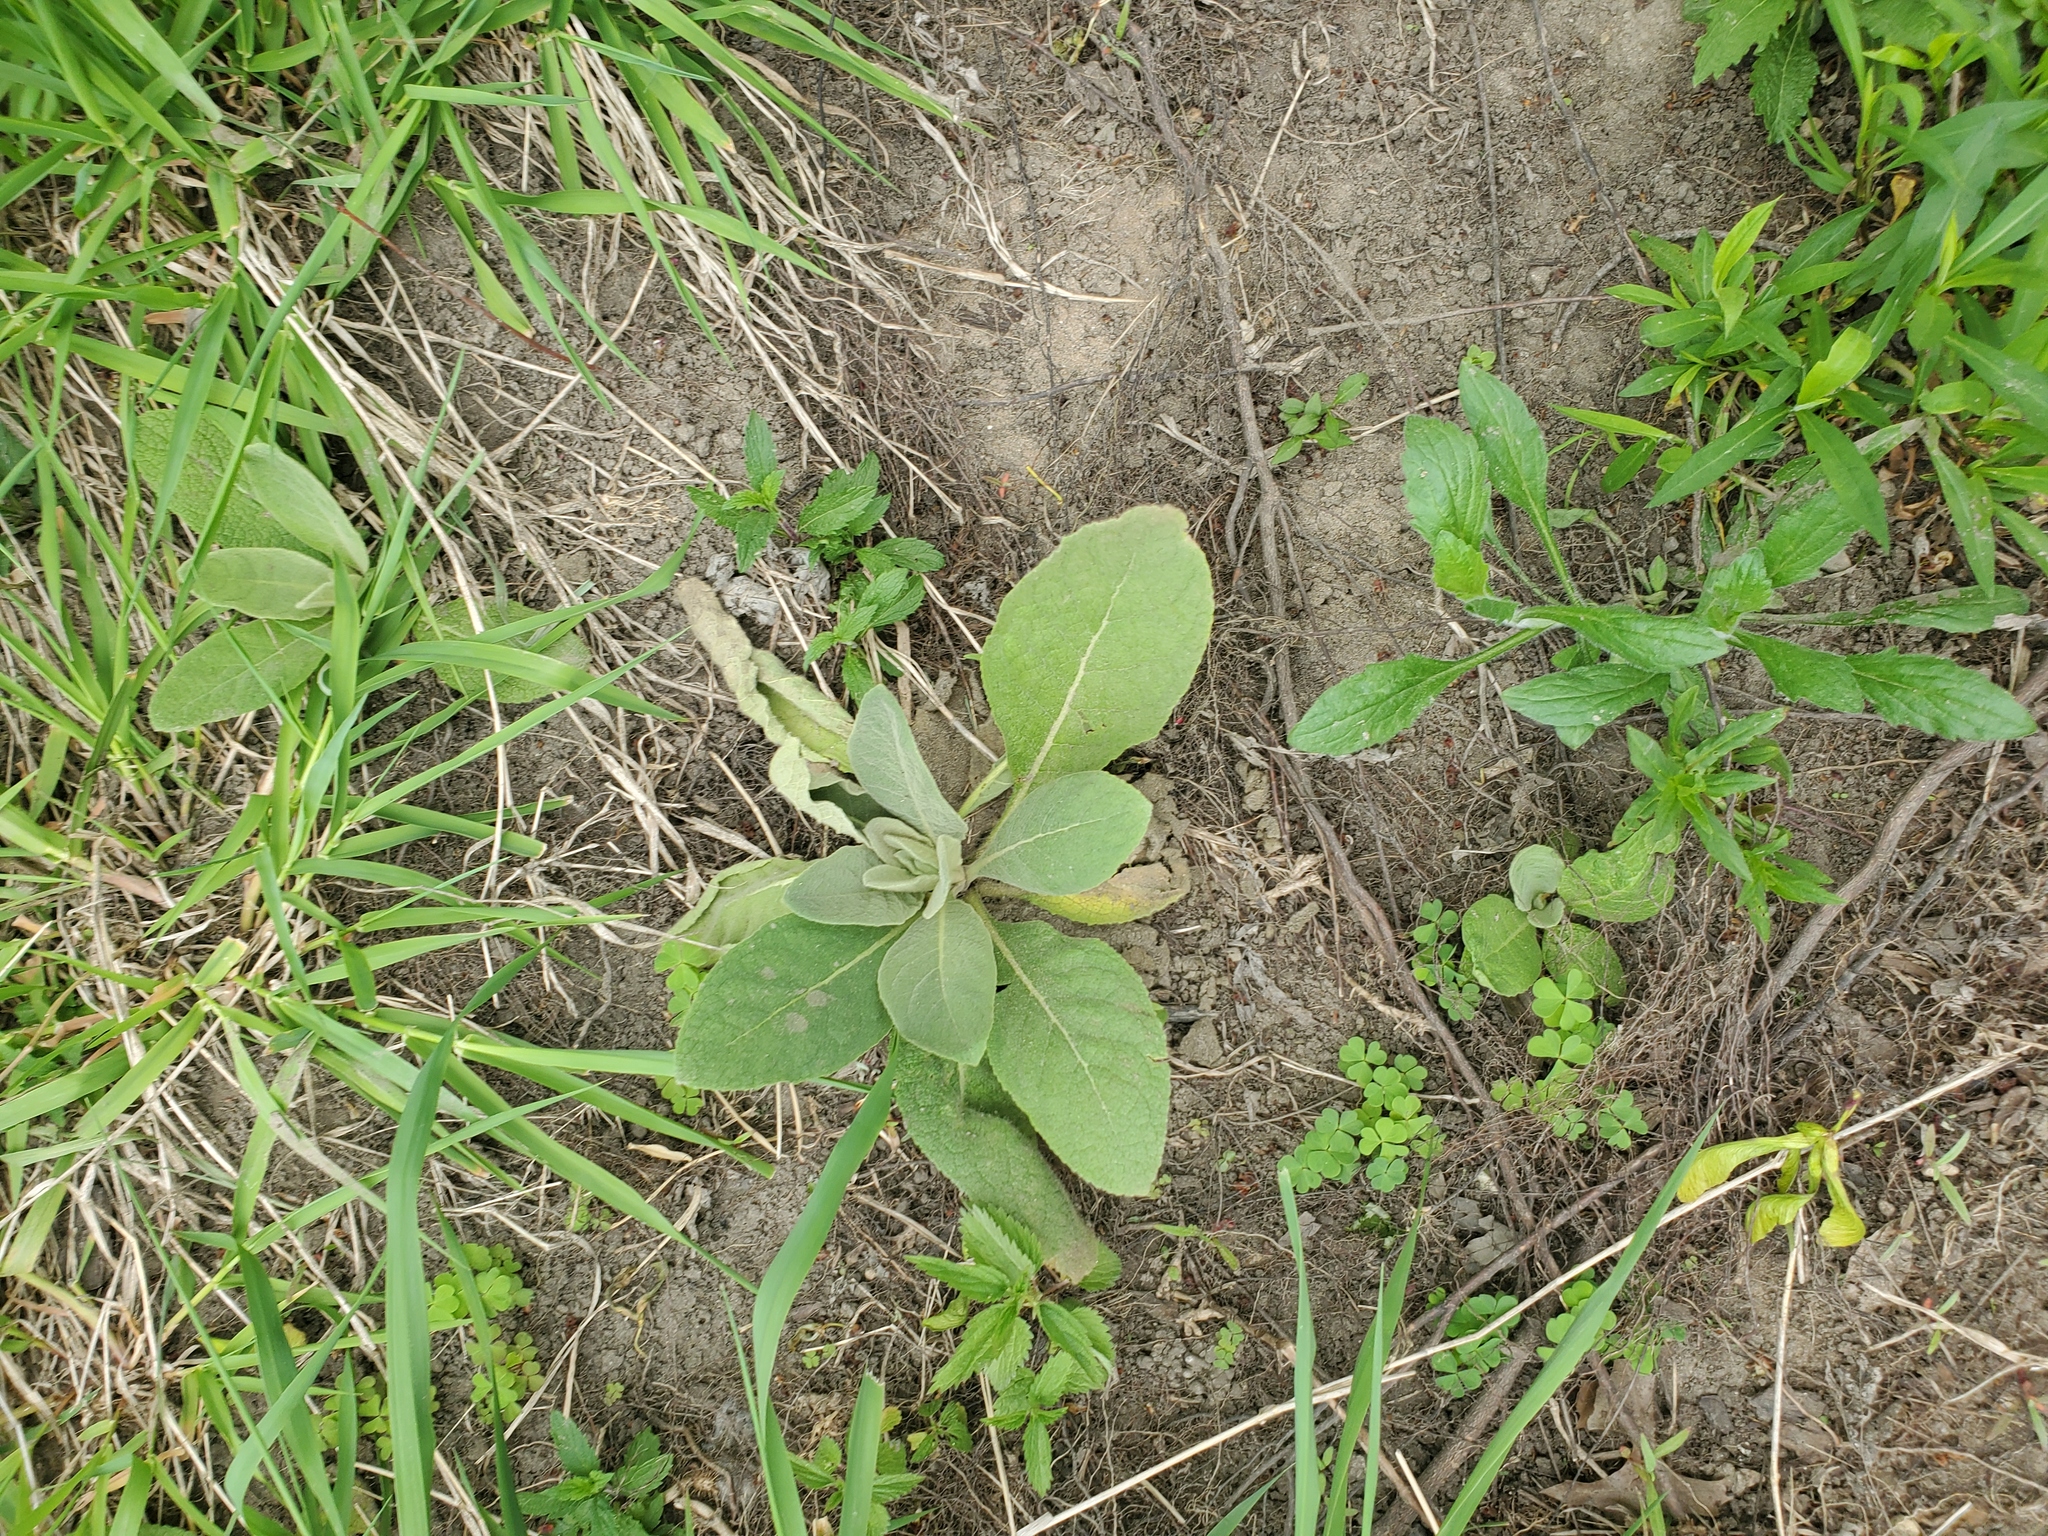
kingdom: Plantae
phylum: Tracheophyta
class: Magnoliopsida
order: Lamiales
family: Scrophulariaceae
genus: Verbascum
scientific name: Verbascum thapsus
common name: Common mullein
